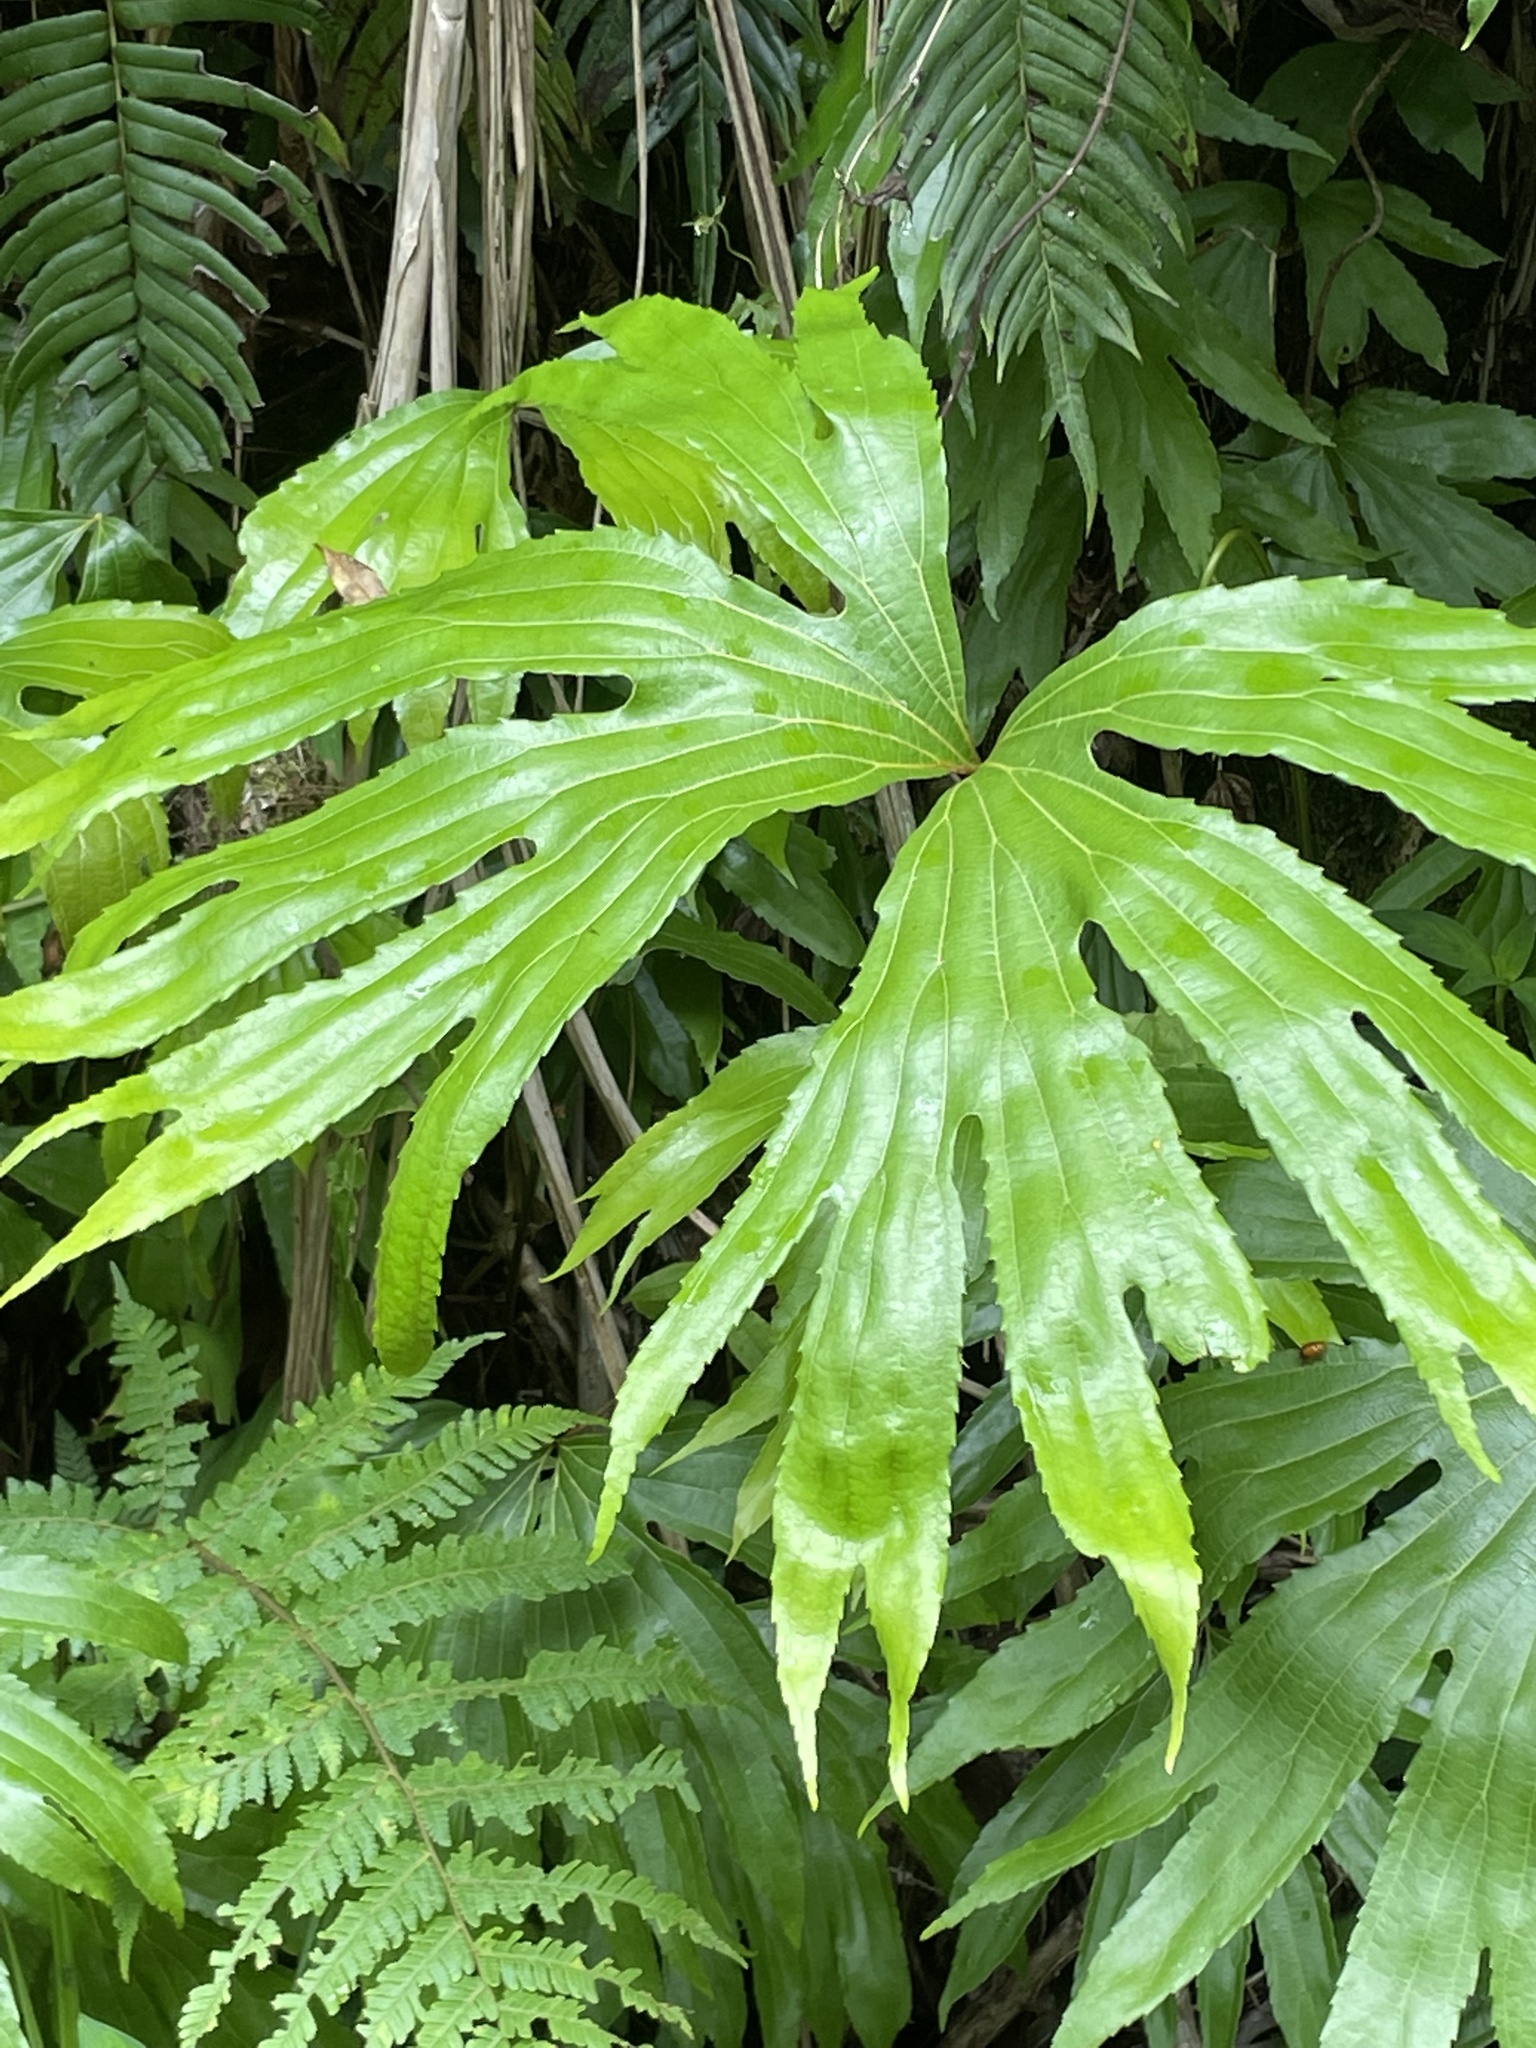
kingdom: Plantae
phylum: Tracheophyta
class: Polypodiopsida
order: Gleicheniales
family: Dipteridaceae
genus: Dipteris
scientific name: Dipteris conjugata
